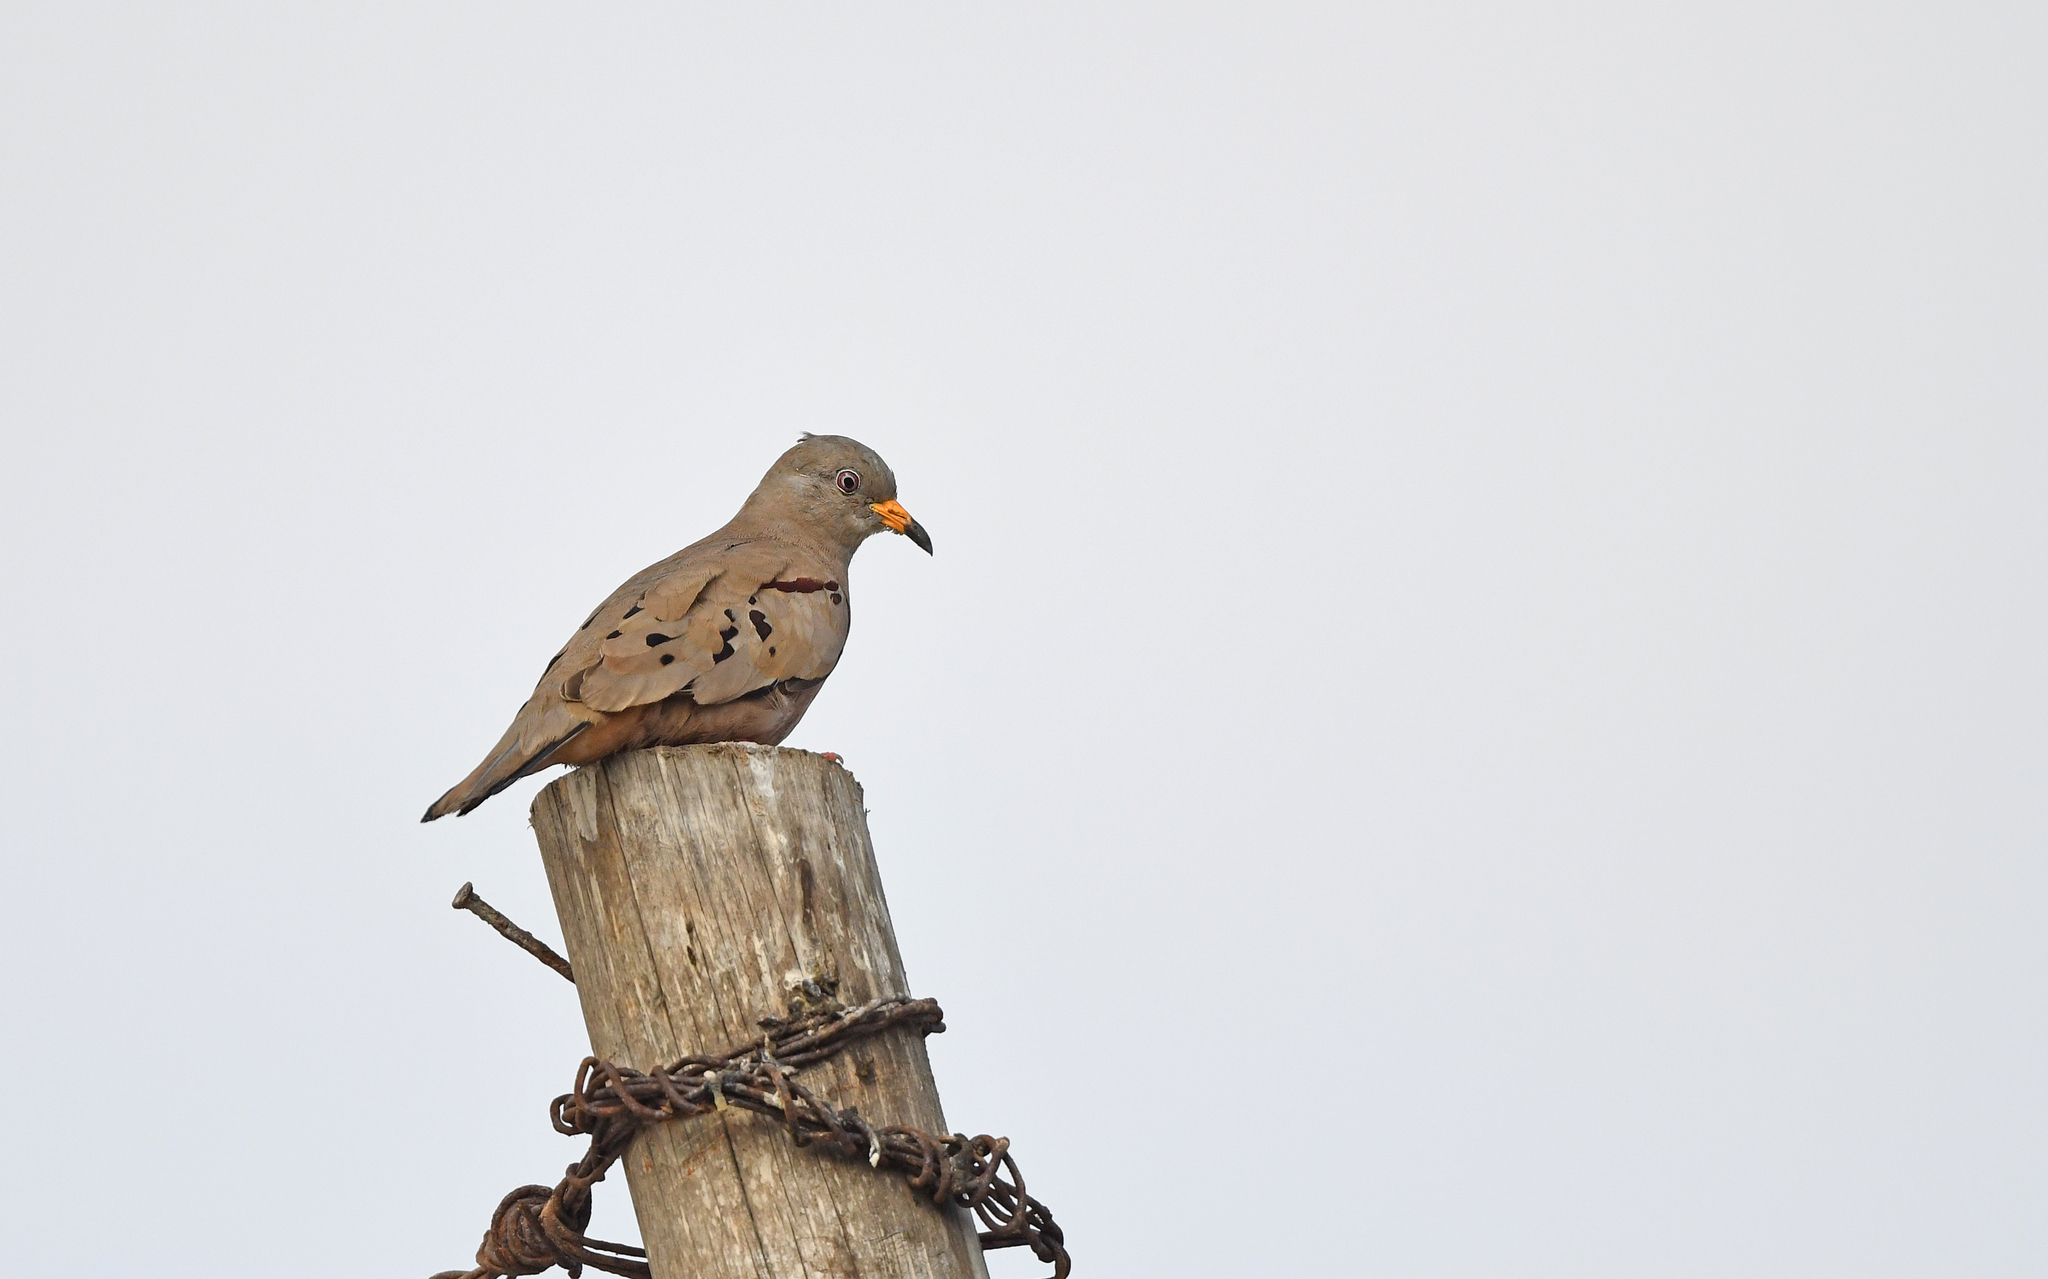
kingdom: Animalia
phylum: Chordata
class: Aves
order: Columbiformes
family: Columbidae
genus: Columbina
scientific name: Columbina cruziana
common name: Croaking ground dove
